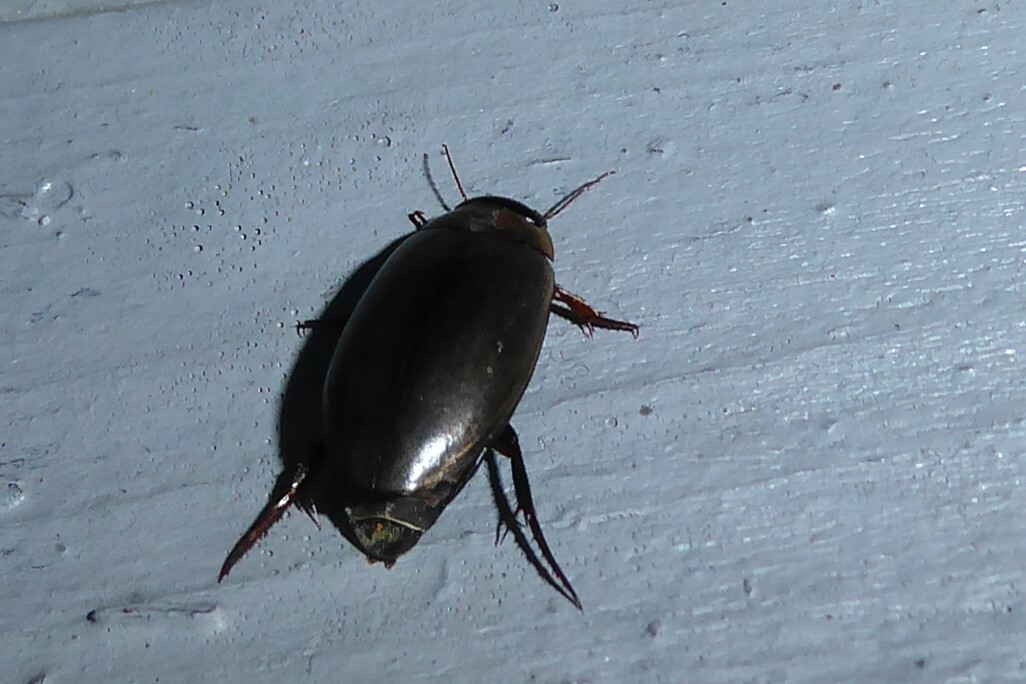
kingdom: Animalia
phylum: Arthropoda
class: Insecta
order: Coleoptera
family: Dytiscidae
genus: Rhantus
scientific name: Rhantus suturalis
